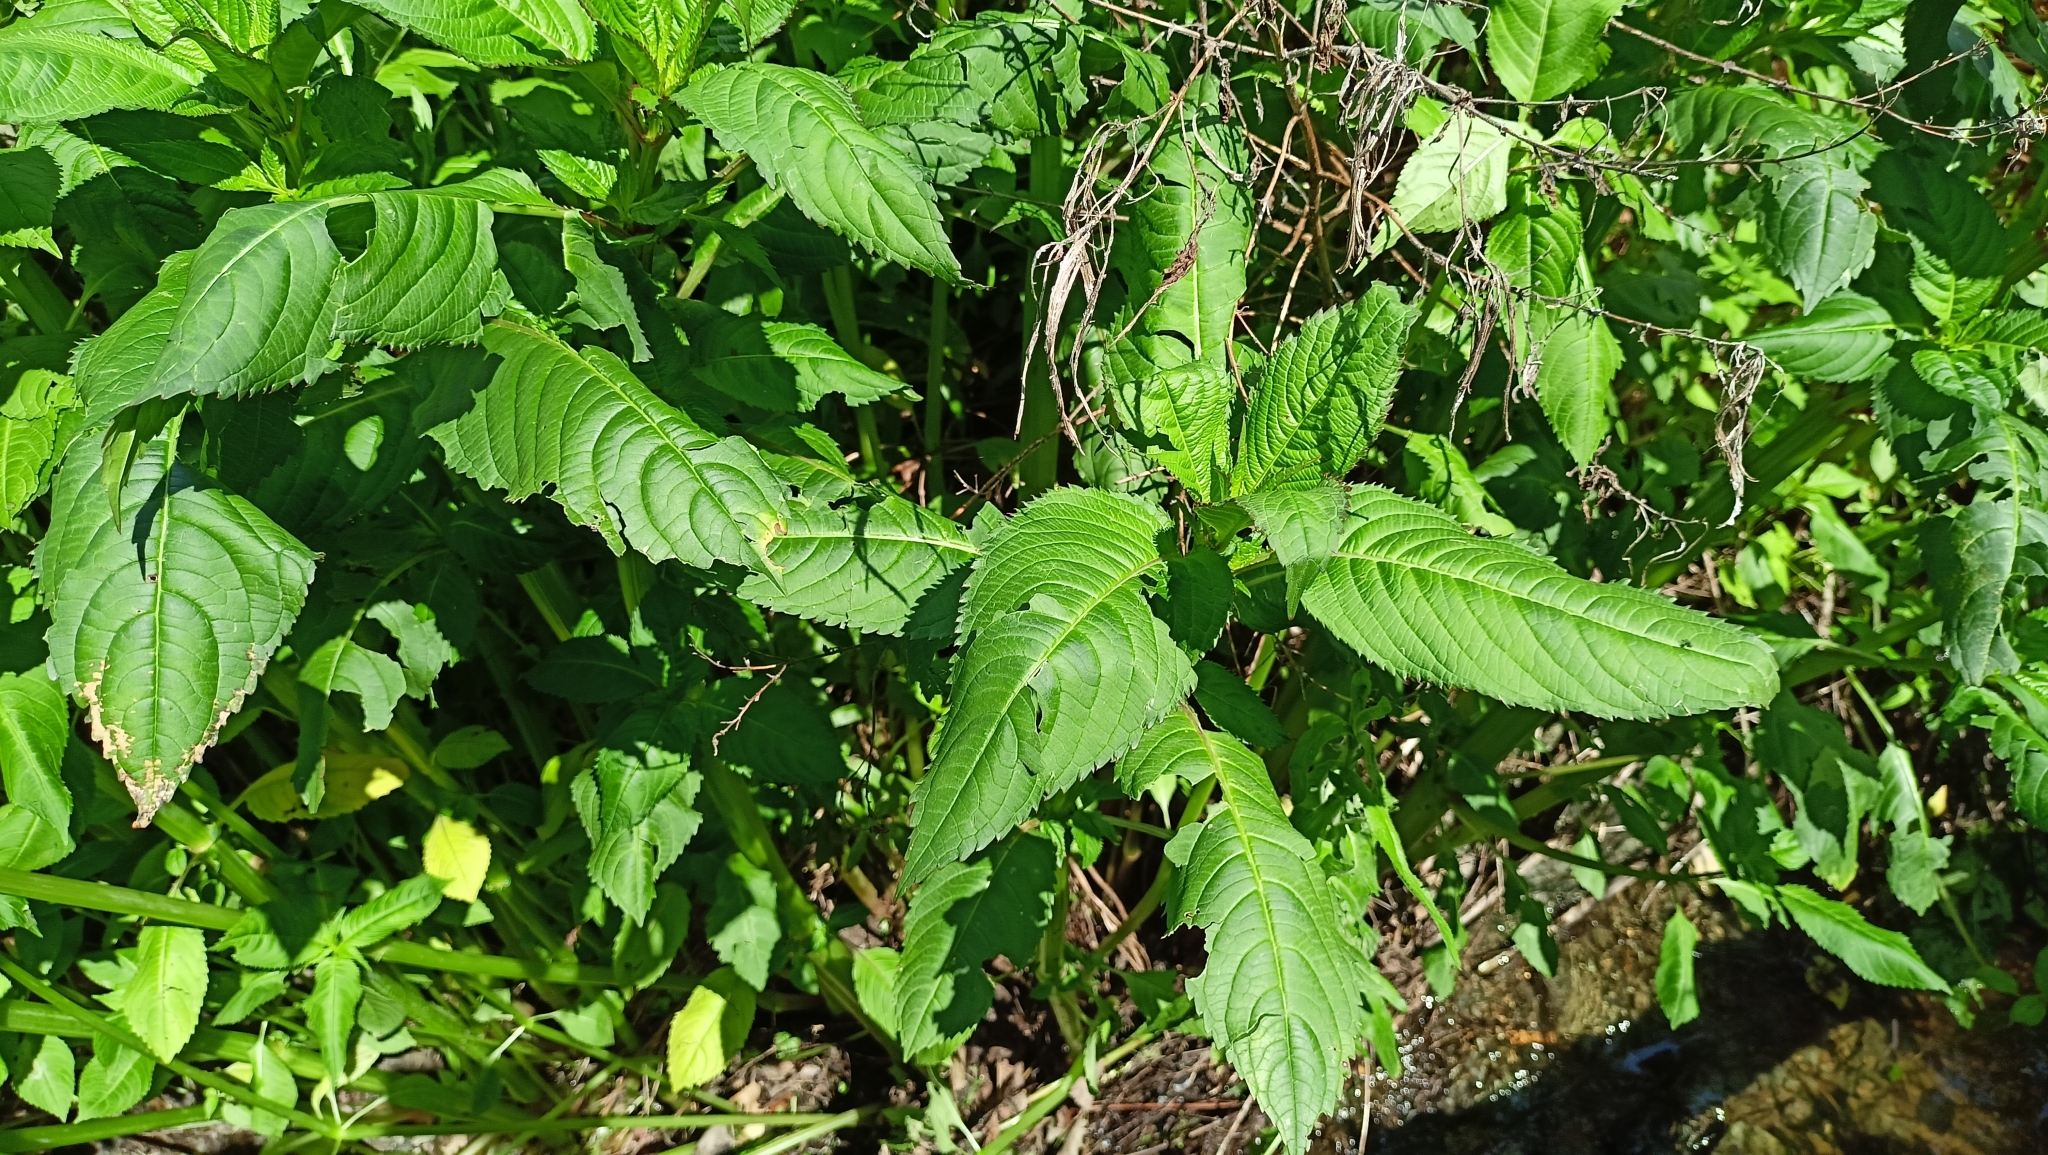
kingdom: Plantae
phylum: Tracheophyta
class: Magnoliopsida
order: Ericales
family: Balsaminaceae
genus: Impatiens
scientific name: Impatiens glandulifera
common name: Himalayan balsam
